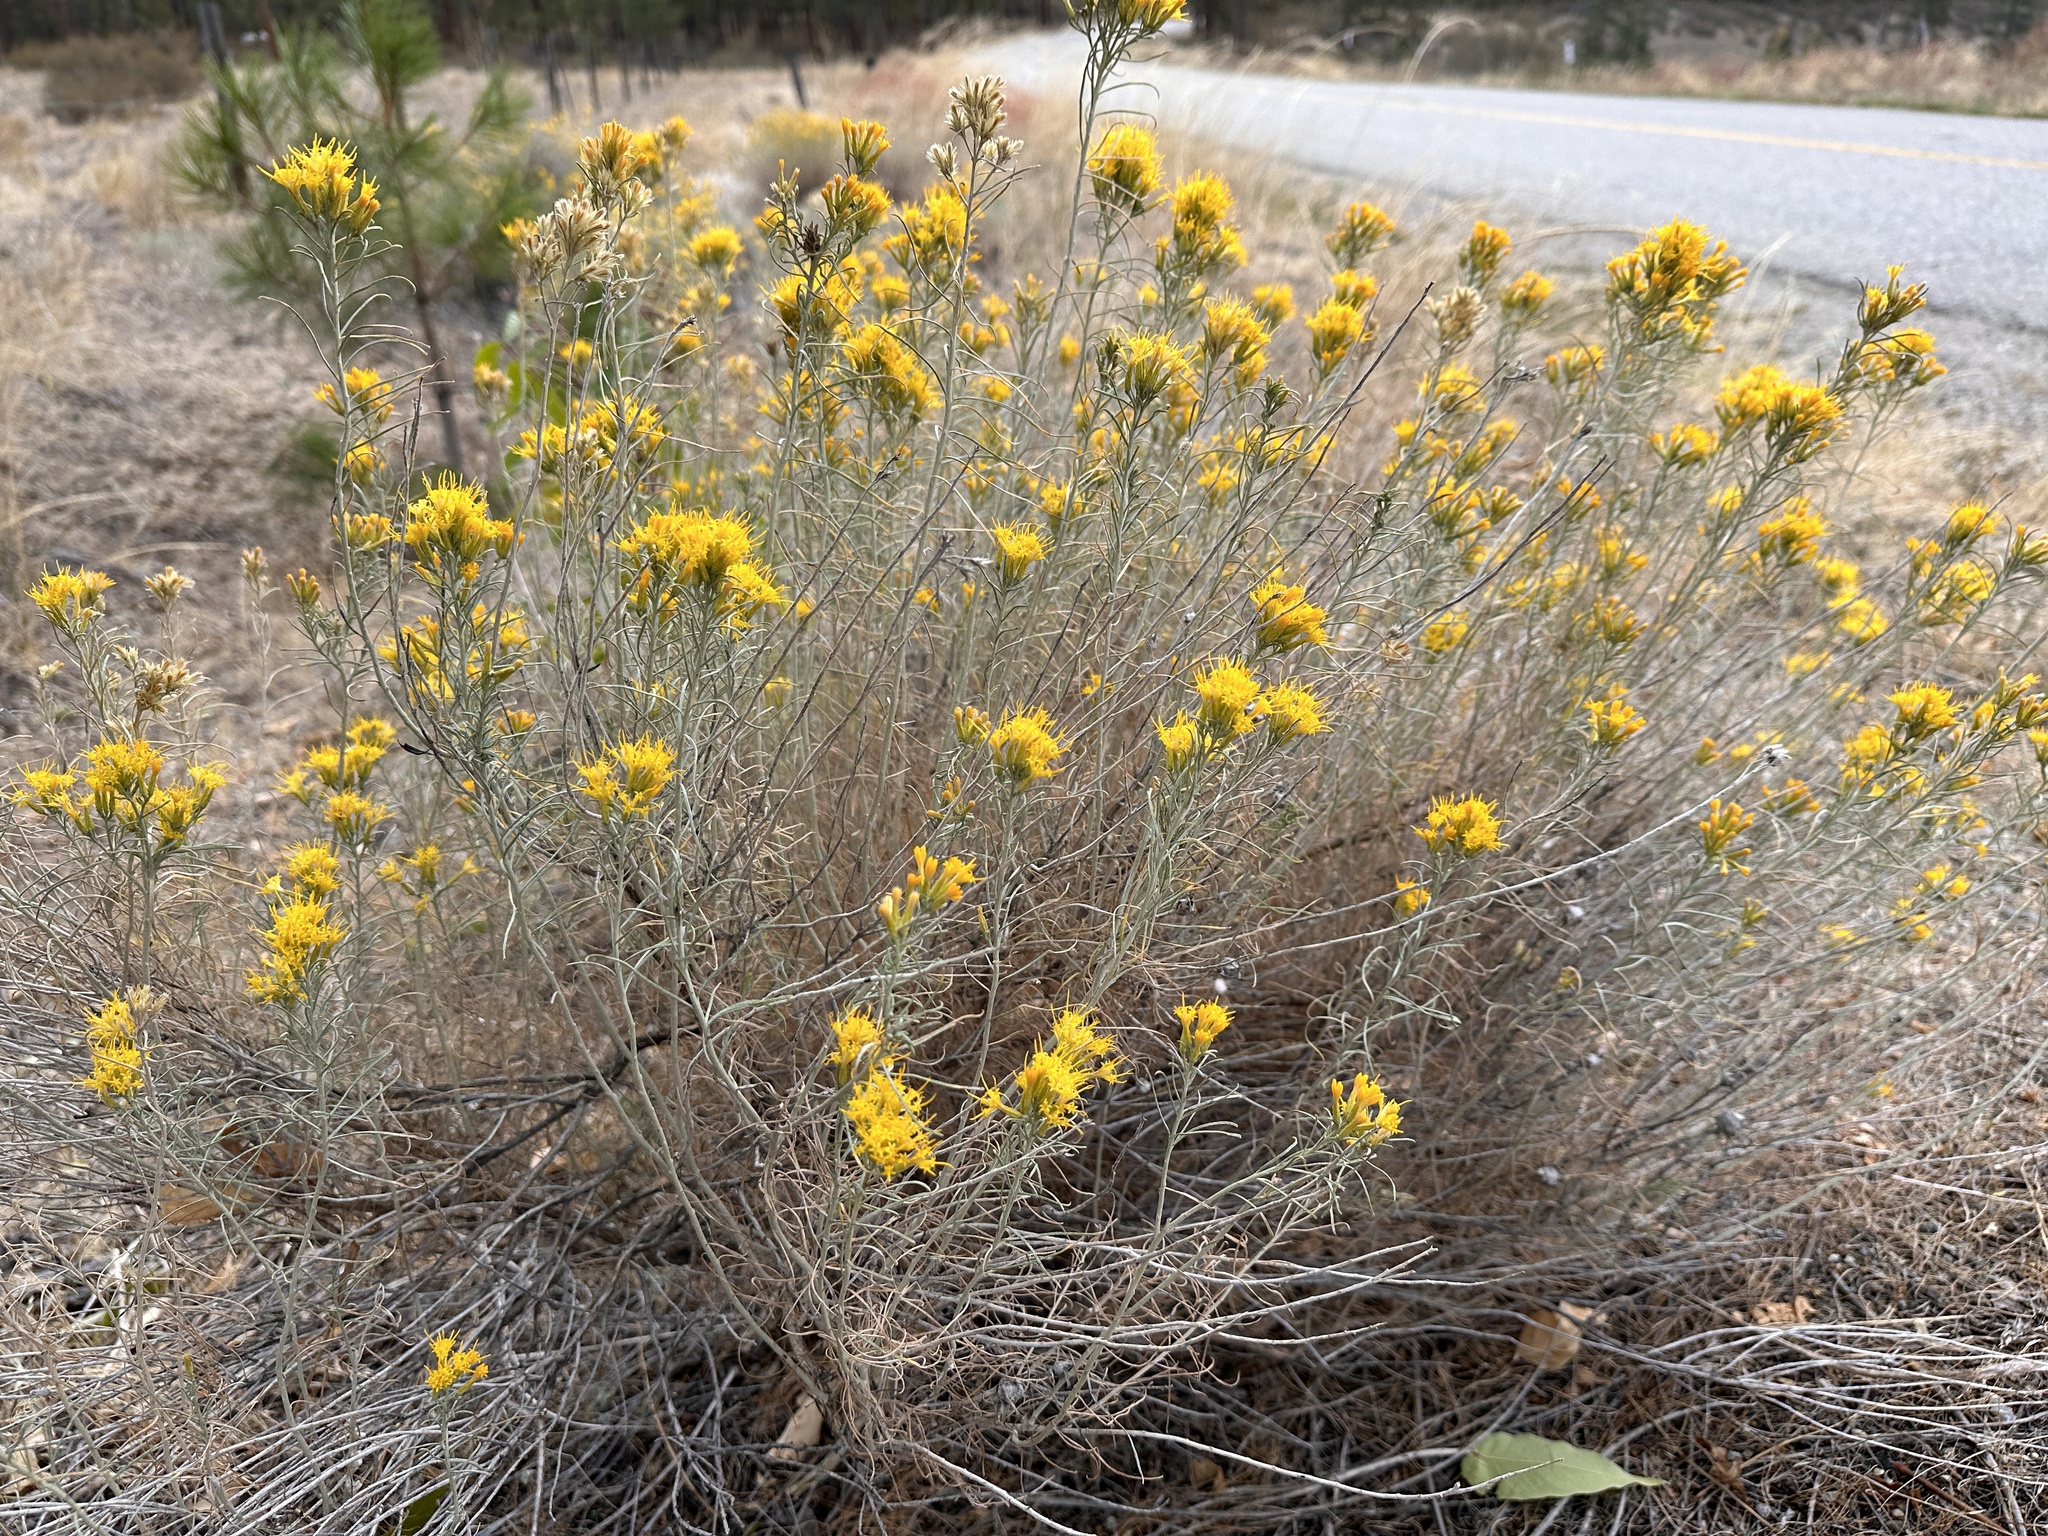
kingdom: Plantae
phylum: Tracheophyta
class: Magnoliopsida
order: Asterales
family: Asteraceae
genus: Ericameria
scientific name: Ericameria nauseosa
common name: Rubber rabbitbrush
